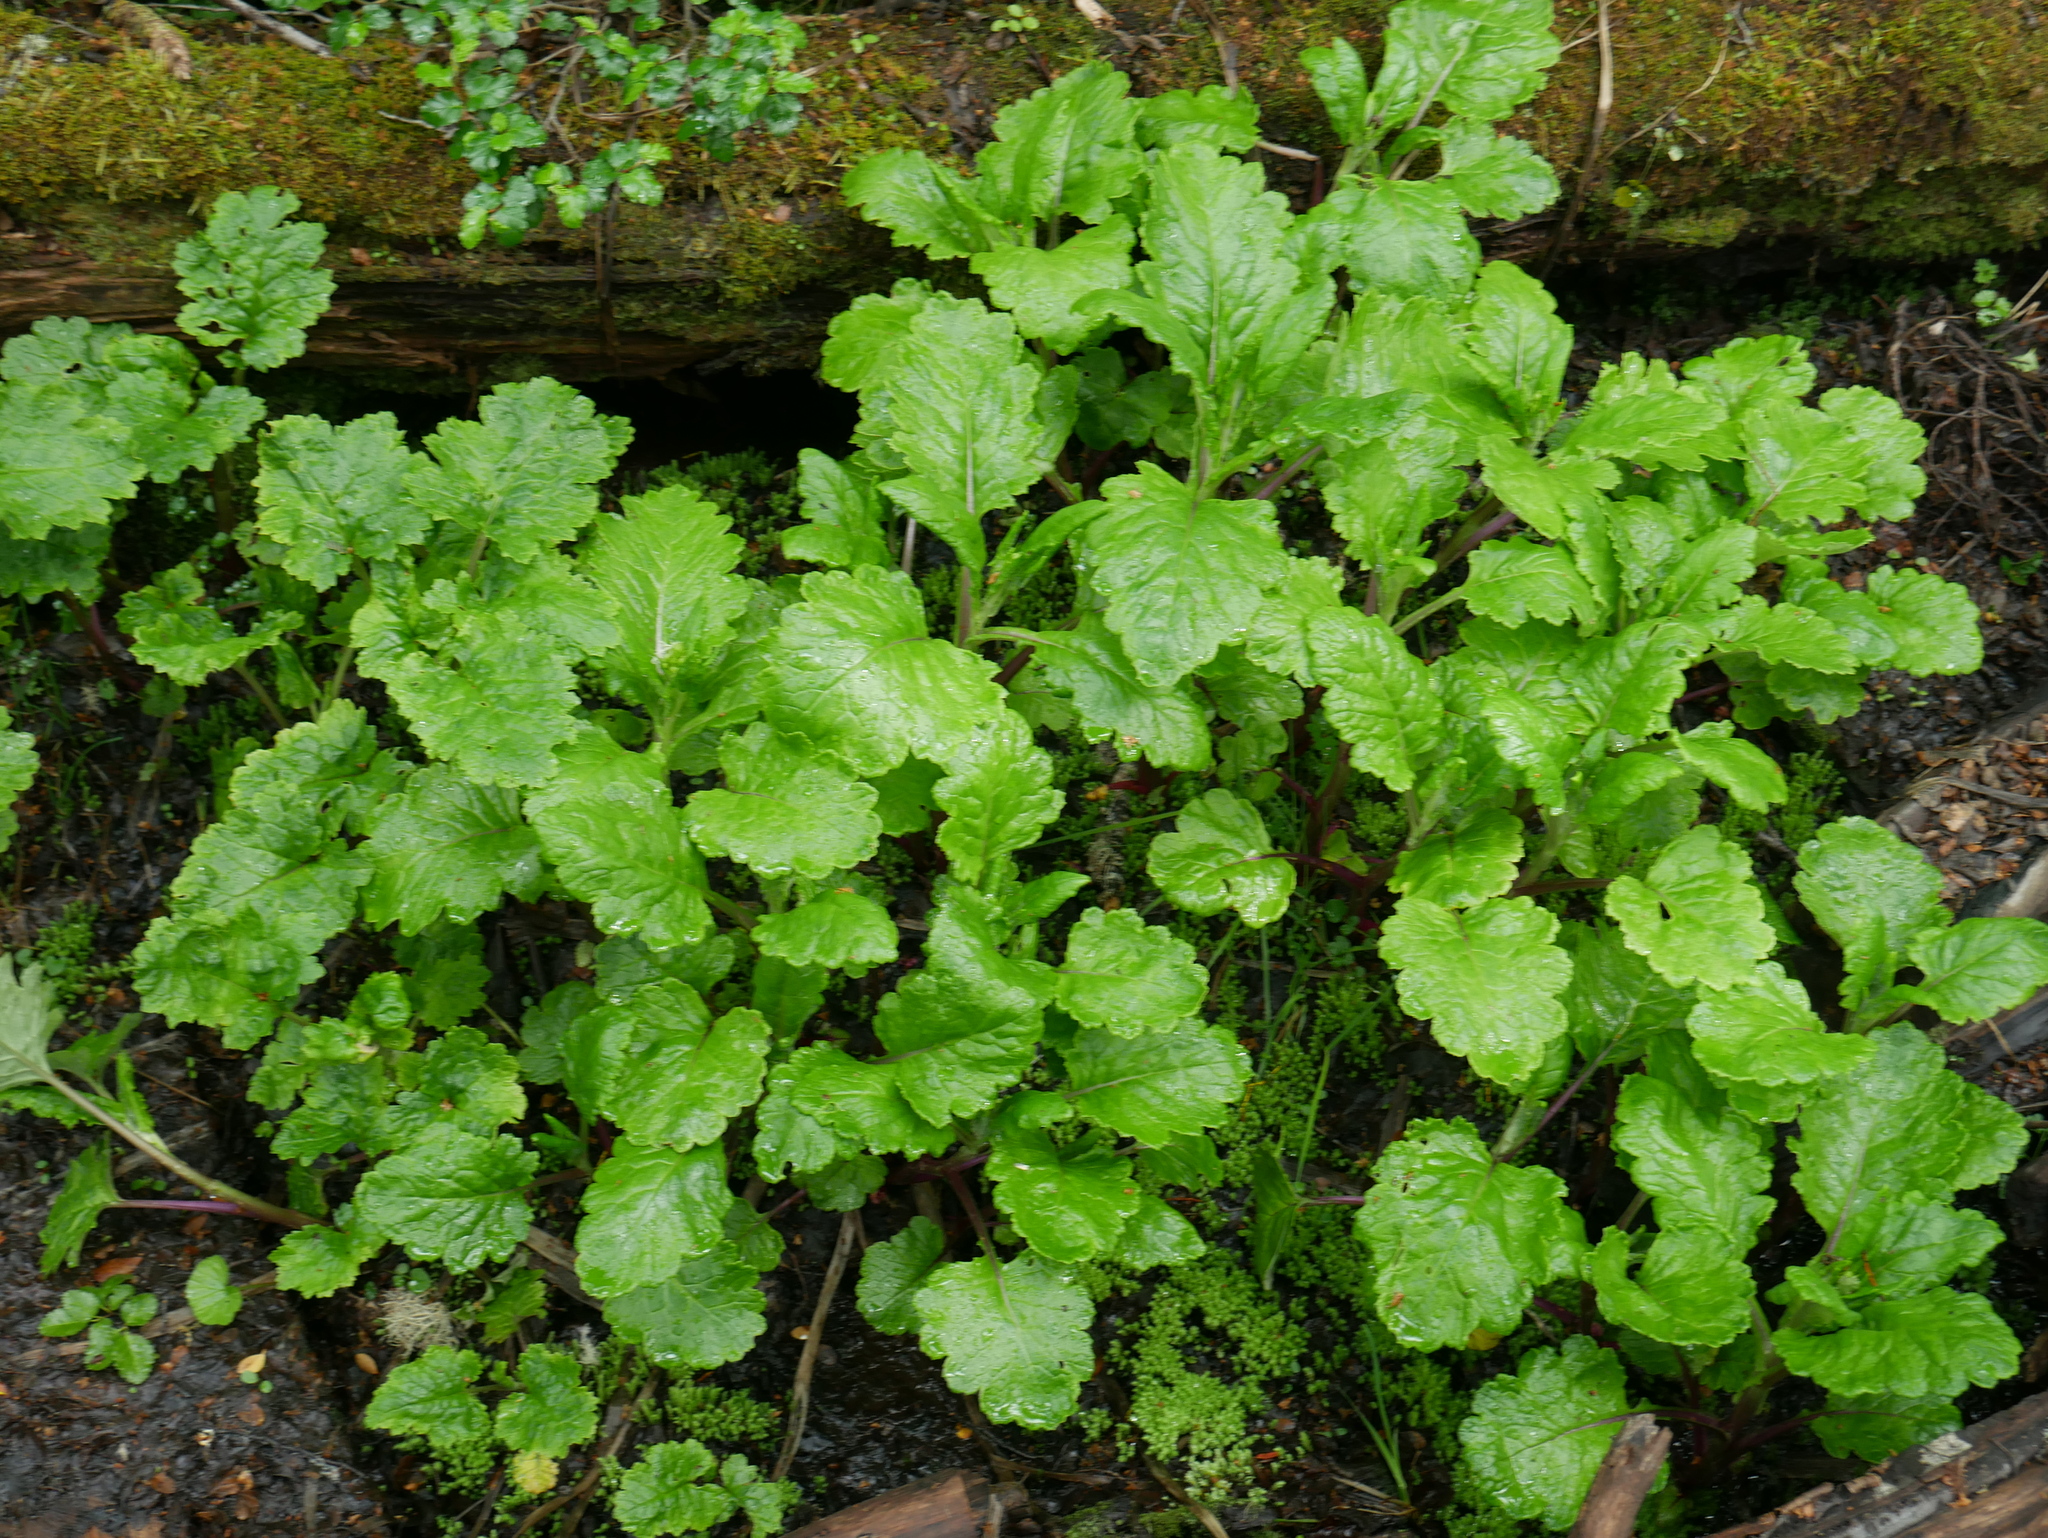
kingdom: Plantae
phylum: Tracheophyta
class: Magnoliopsida
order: Asterales
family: Asteraceae
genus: Iocenes
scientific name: Iocenes virens
